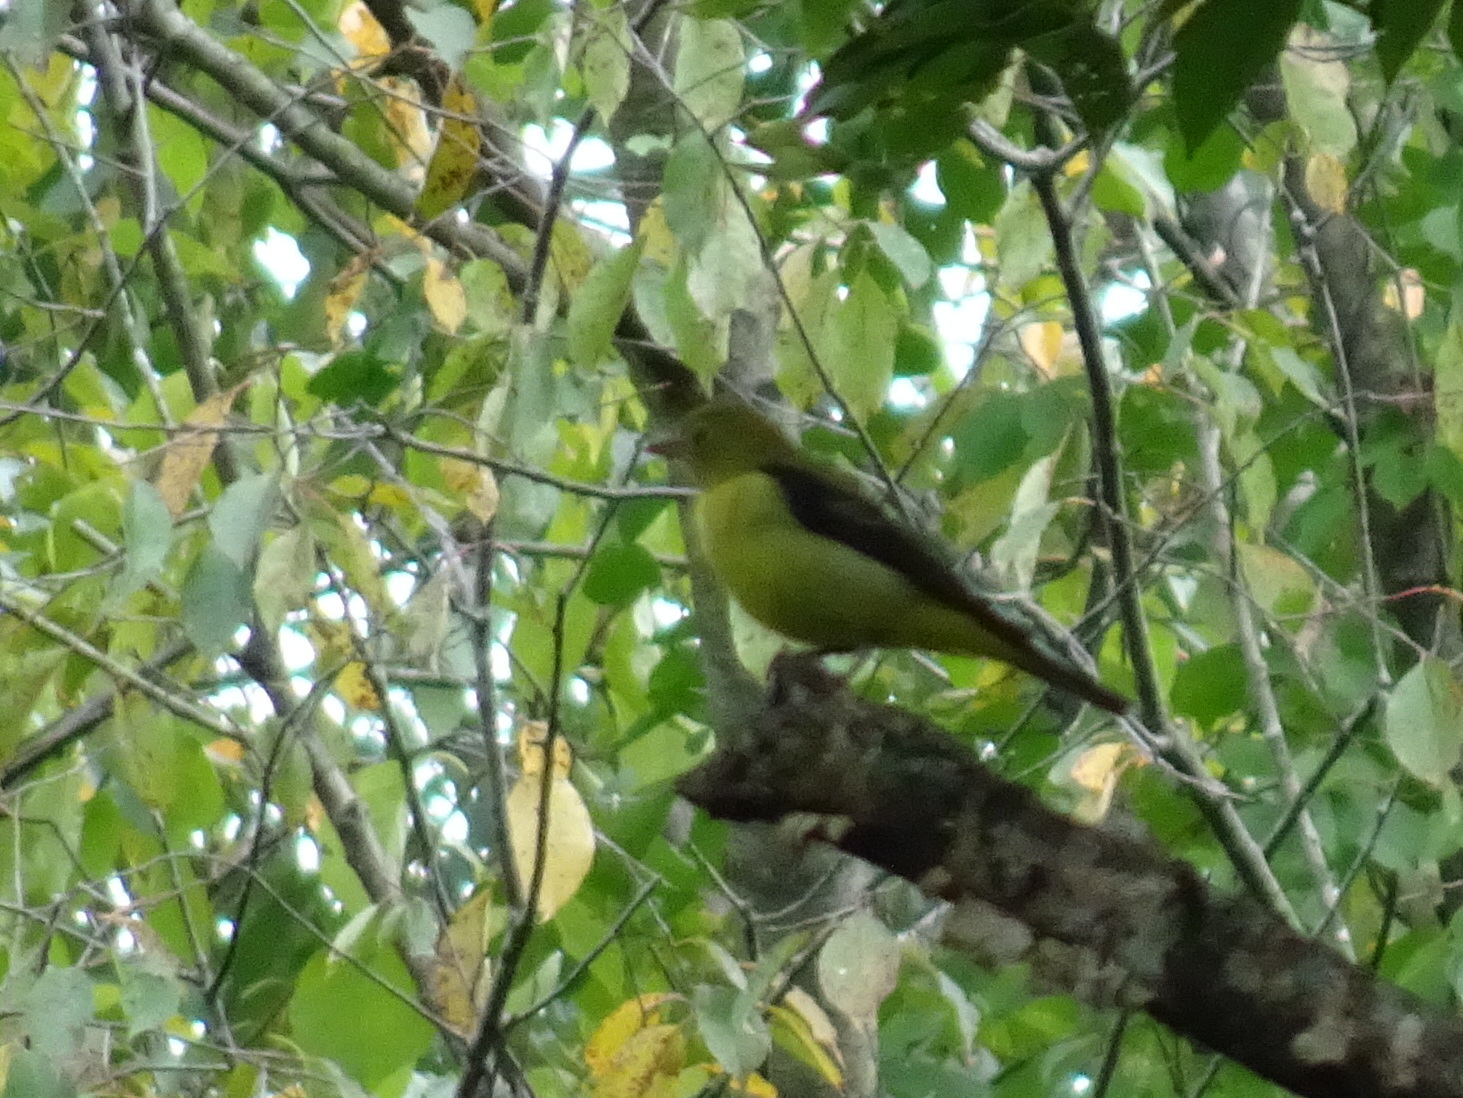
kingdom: Animalia
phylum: Chordata
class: Aves
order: Passeriformes
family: Cardinalidae
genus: Piranga
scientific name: Piranga olivacea
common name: Scarlet tanager
